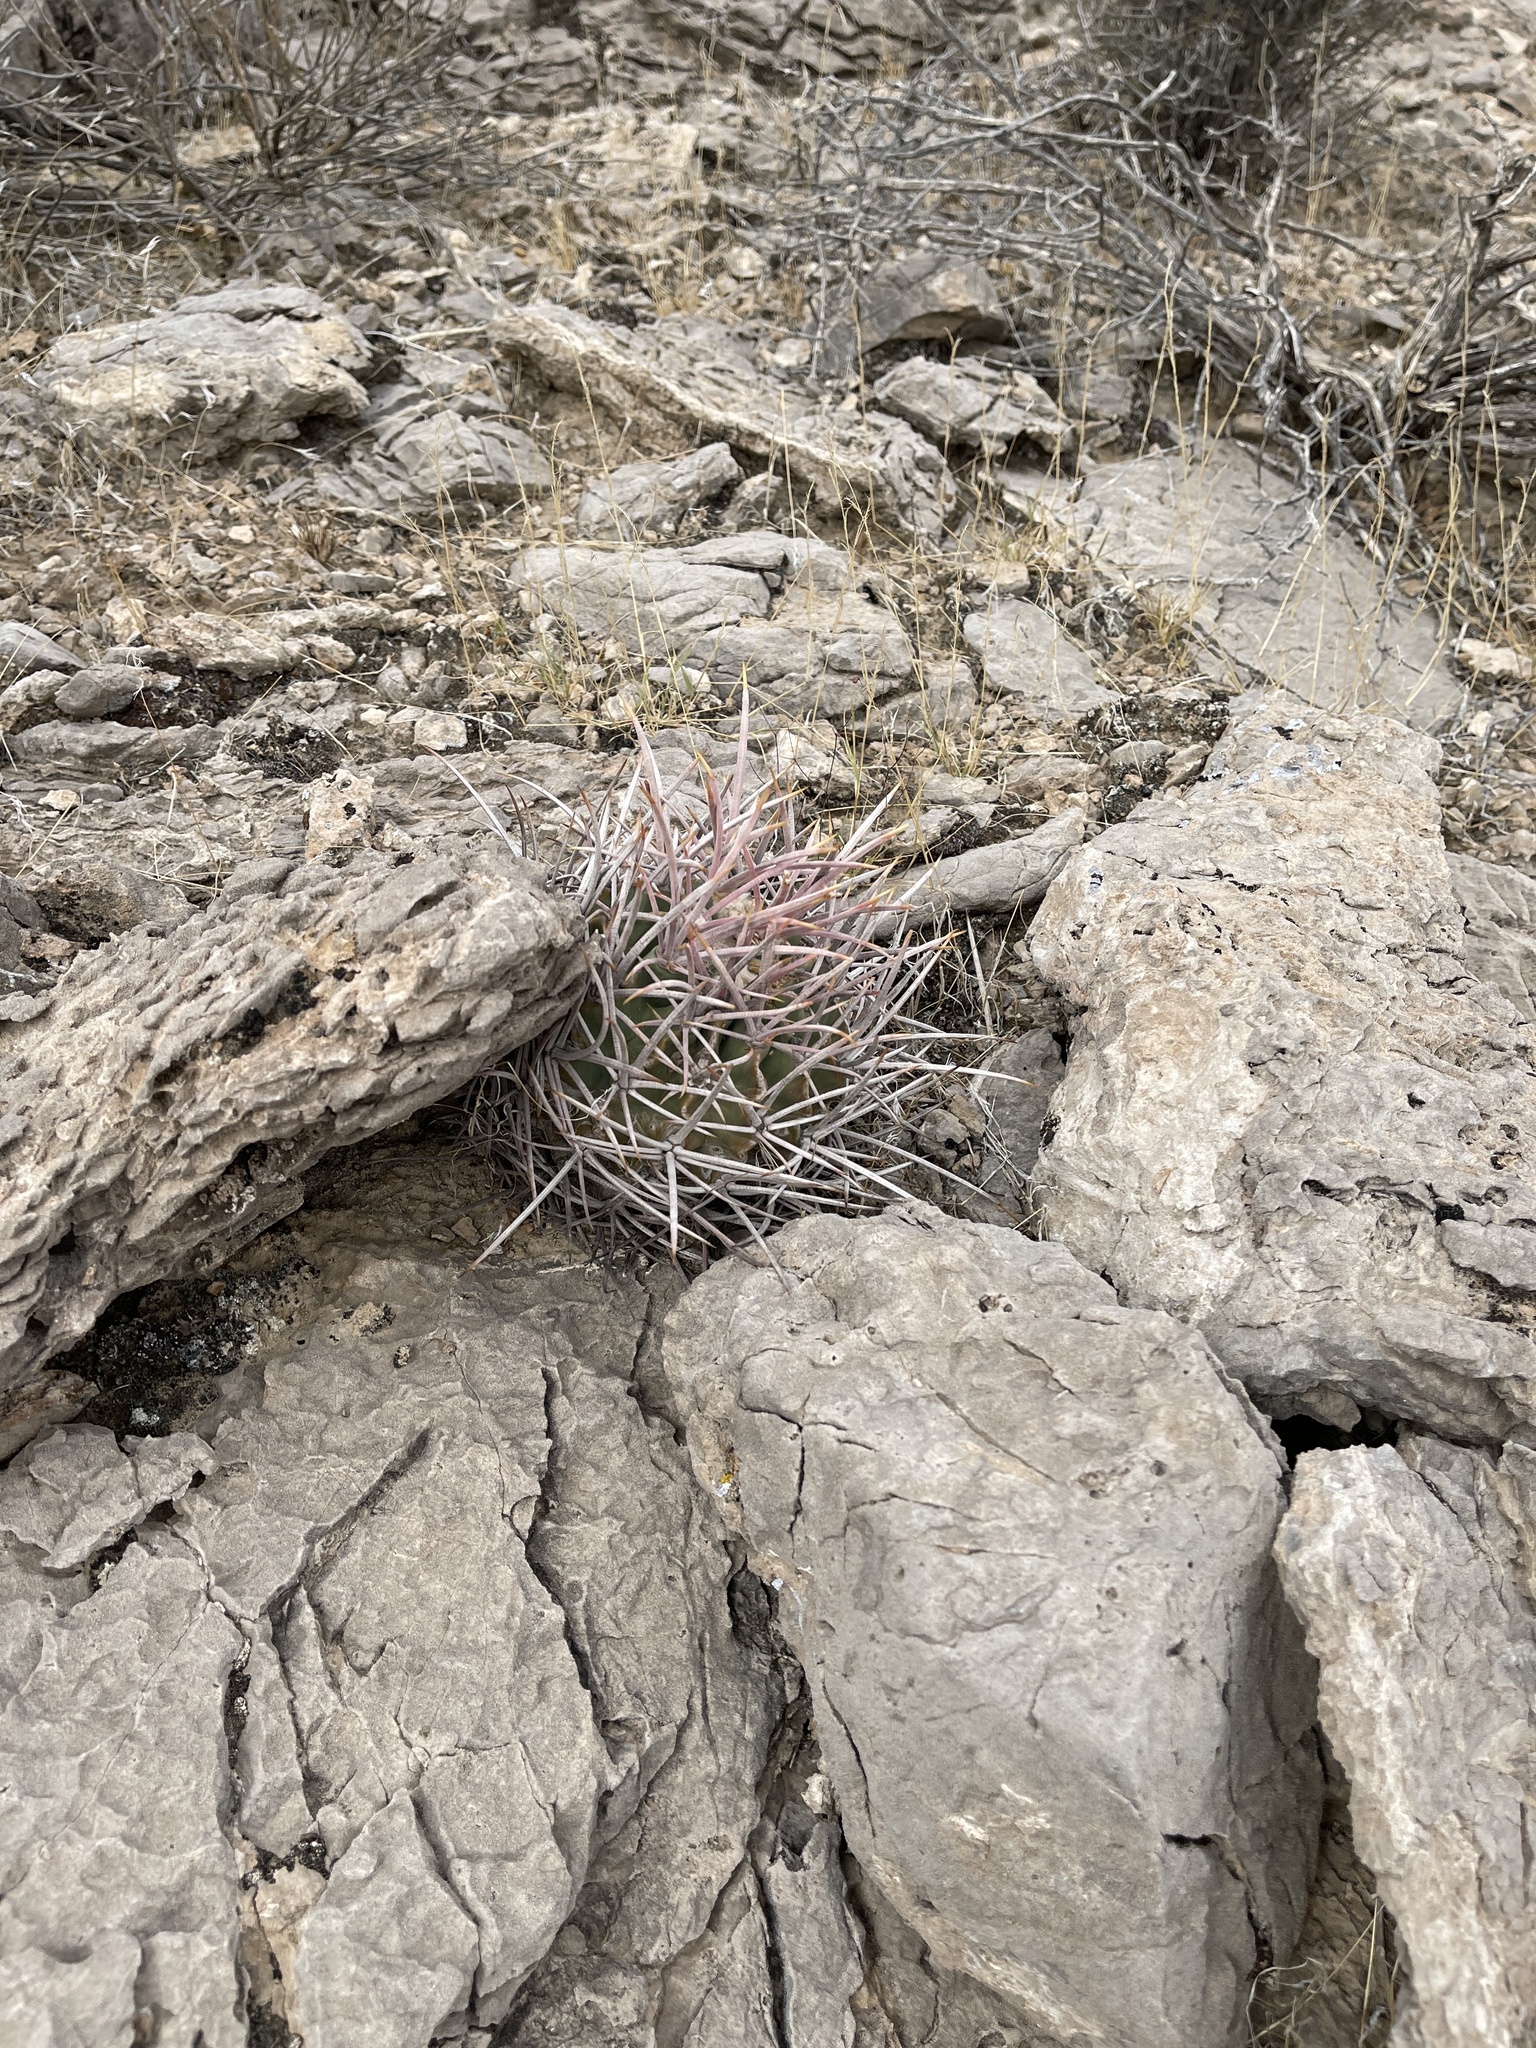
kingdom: Plantae
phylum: Tracheophyta
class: Magnoliopsida
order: Caryophyllales
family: Cactaceae
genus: Echinocactus
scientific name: Echinocactus polycephalus
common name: Cottontop cactus
